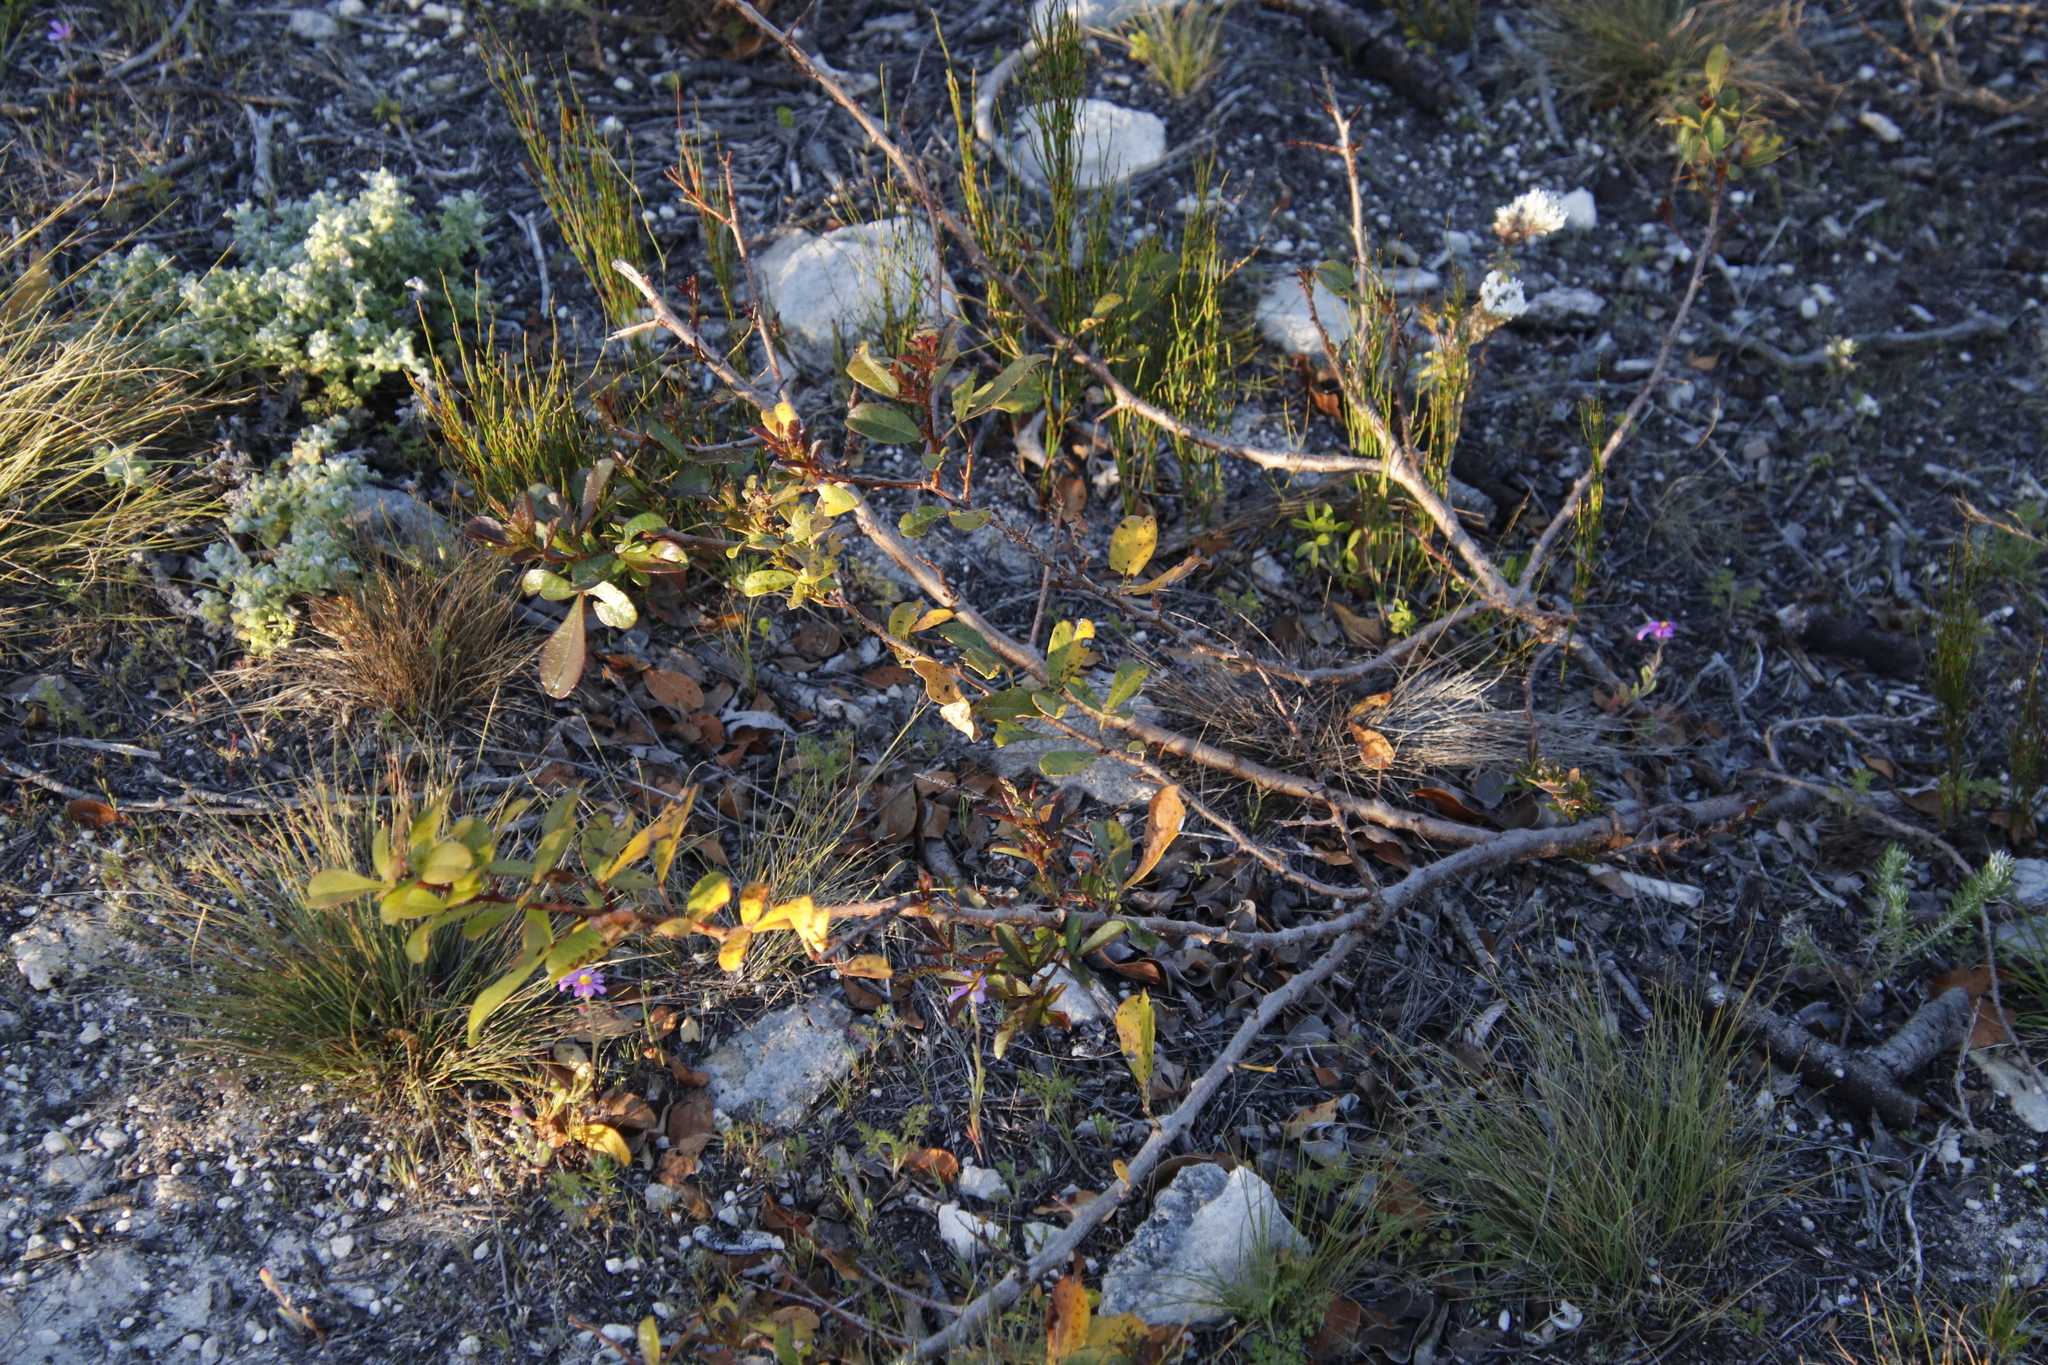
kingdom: Plantae
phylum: Tracheophyta
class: Magnoliopsida
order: Sapindales
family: Anacardiaceae
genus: Searsia
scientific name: Searsia laevigata
